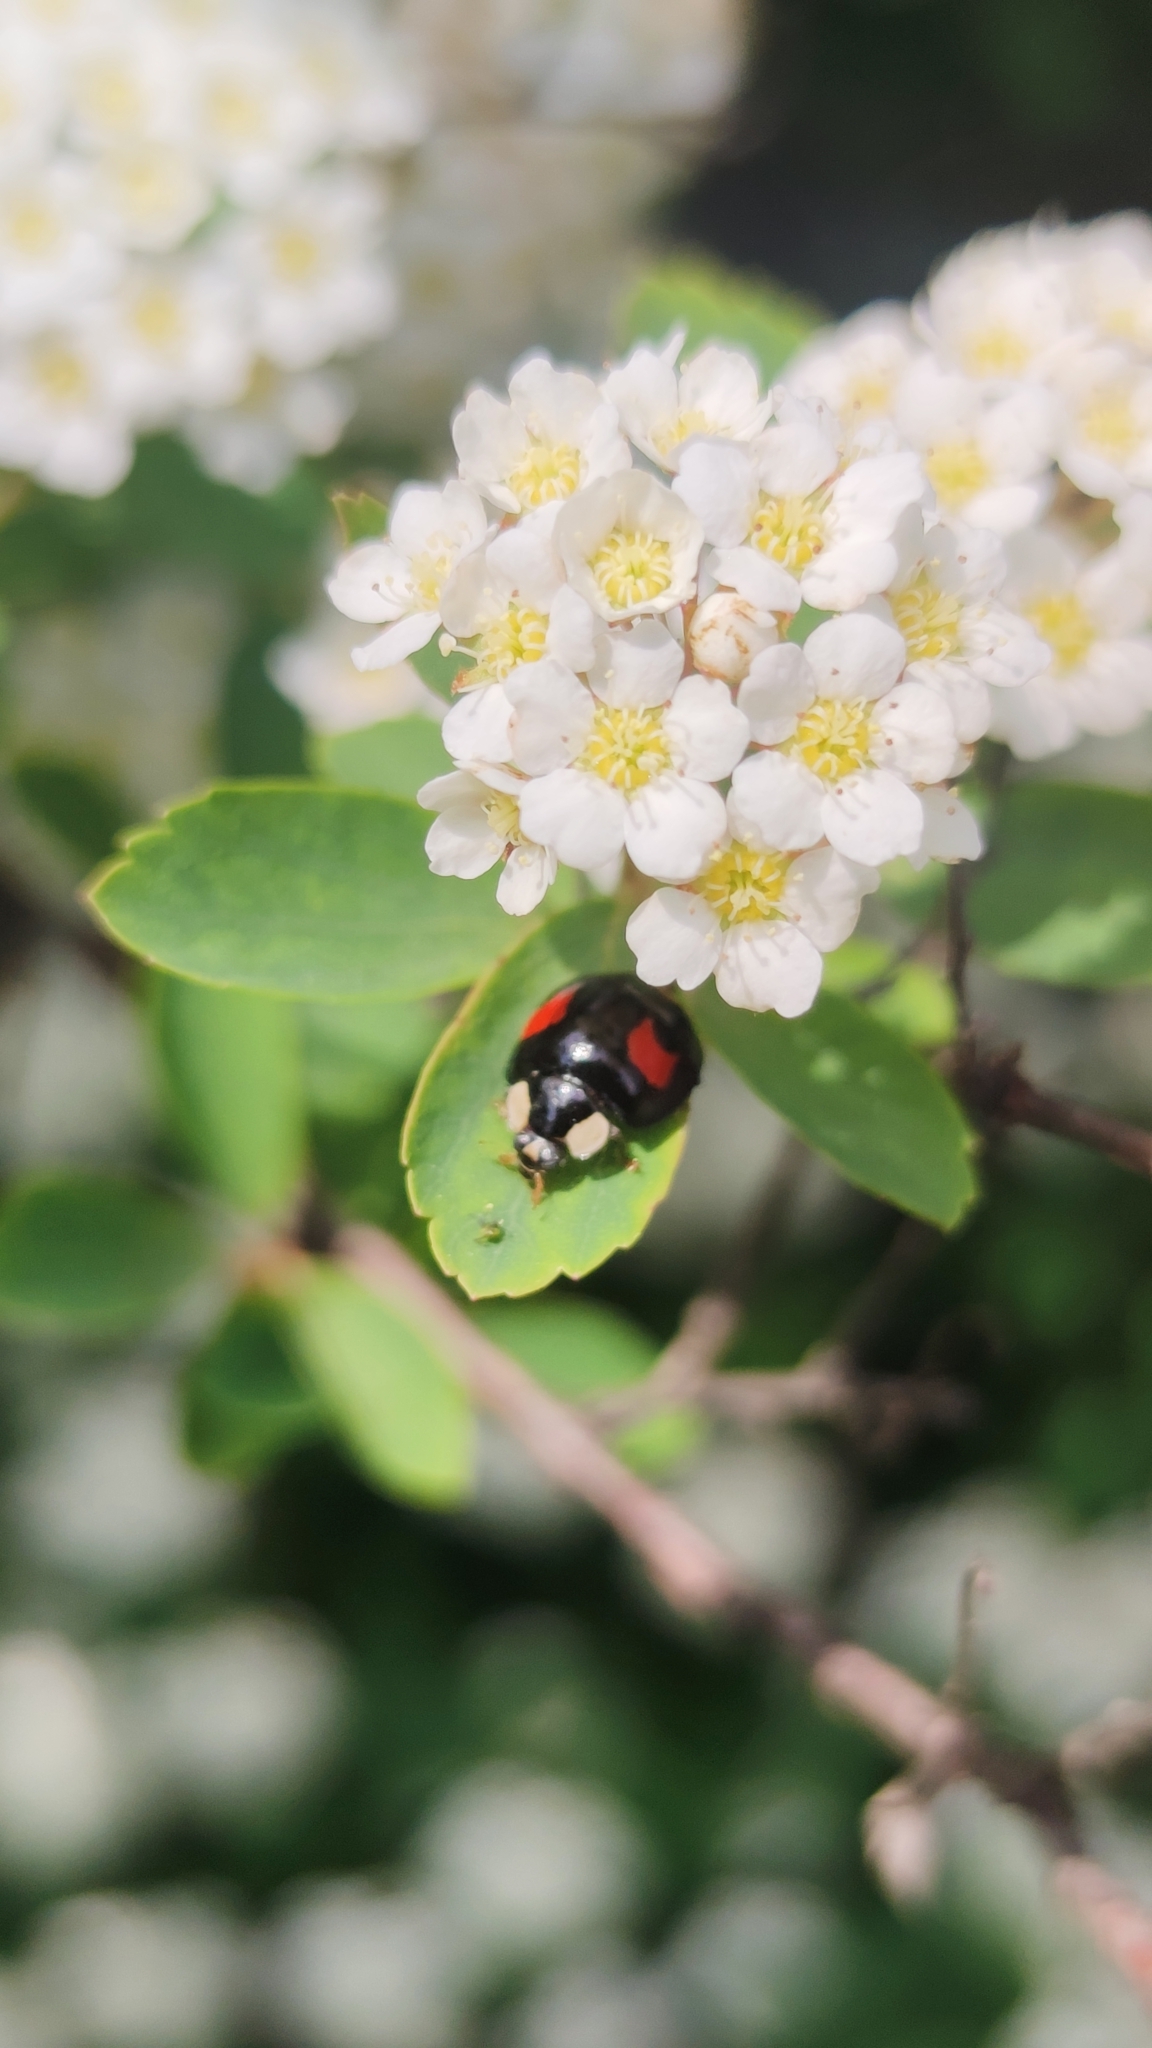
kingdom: Animalia
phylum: Arthropoda
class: Insecta
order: Coleoptera
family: Coccinellidae
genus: Harmonia
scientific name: Harmonia axyridis
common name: Harlequin ladybird
